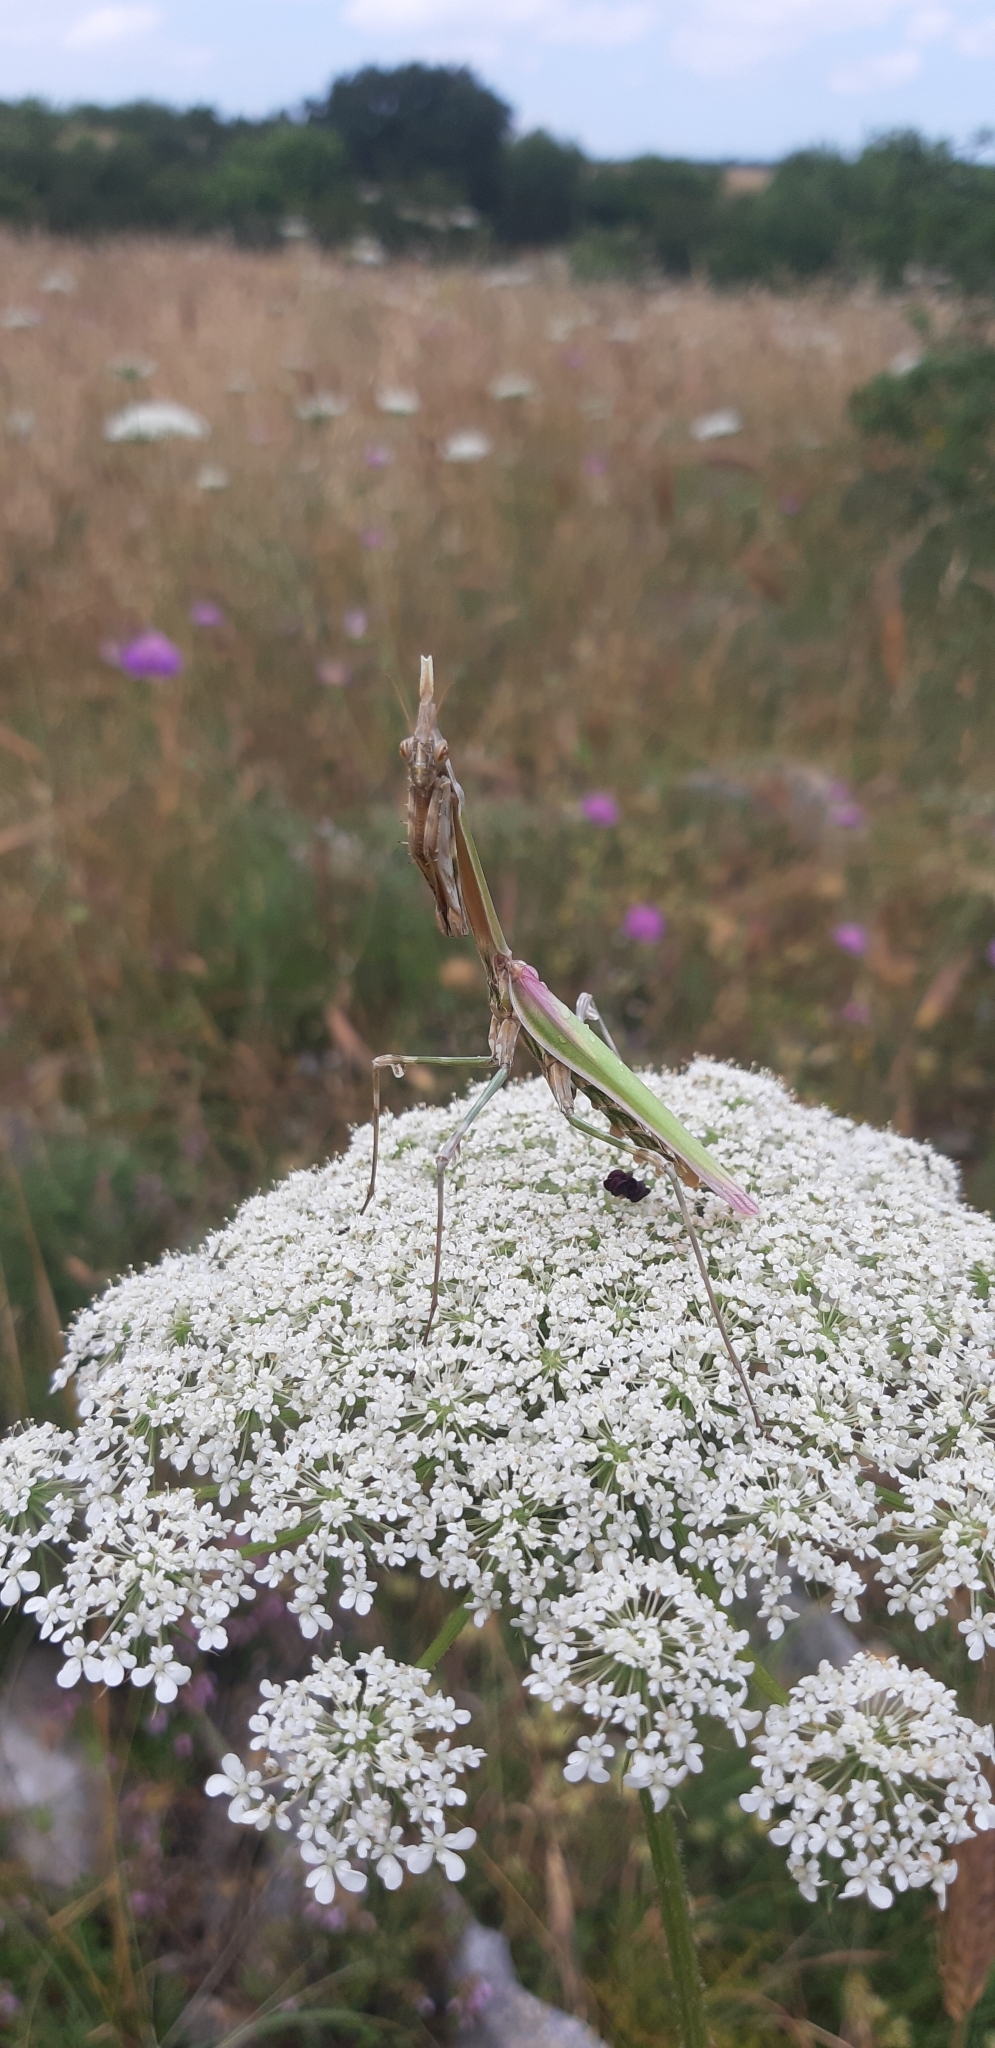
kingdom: Animalia
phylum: Arthropoda
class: Insecta
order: Mantodea
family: Empusidae
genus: Empusa
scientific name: Empusa pennata
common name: Conehead mantis
